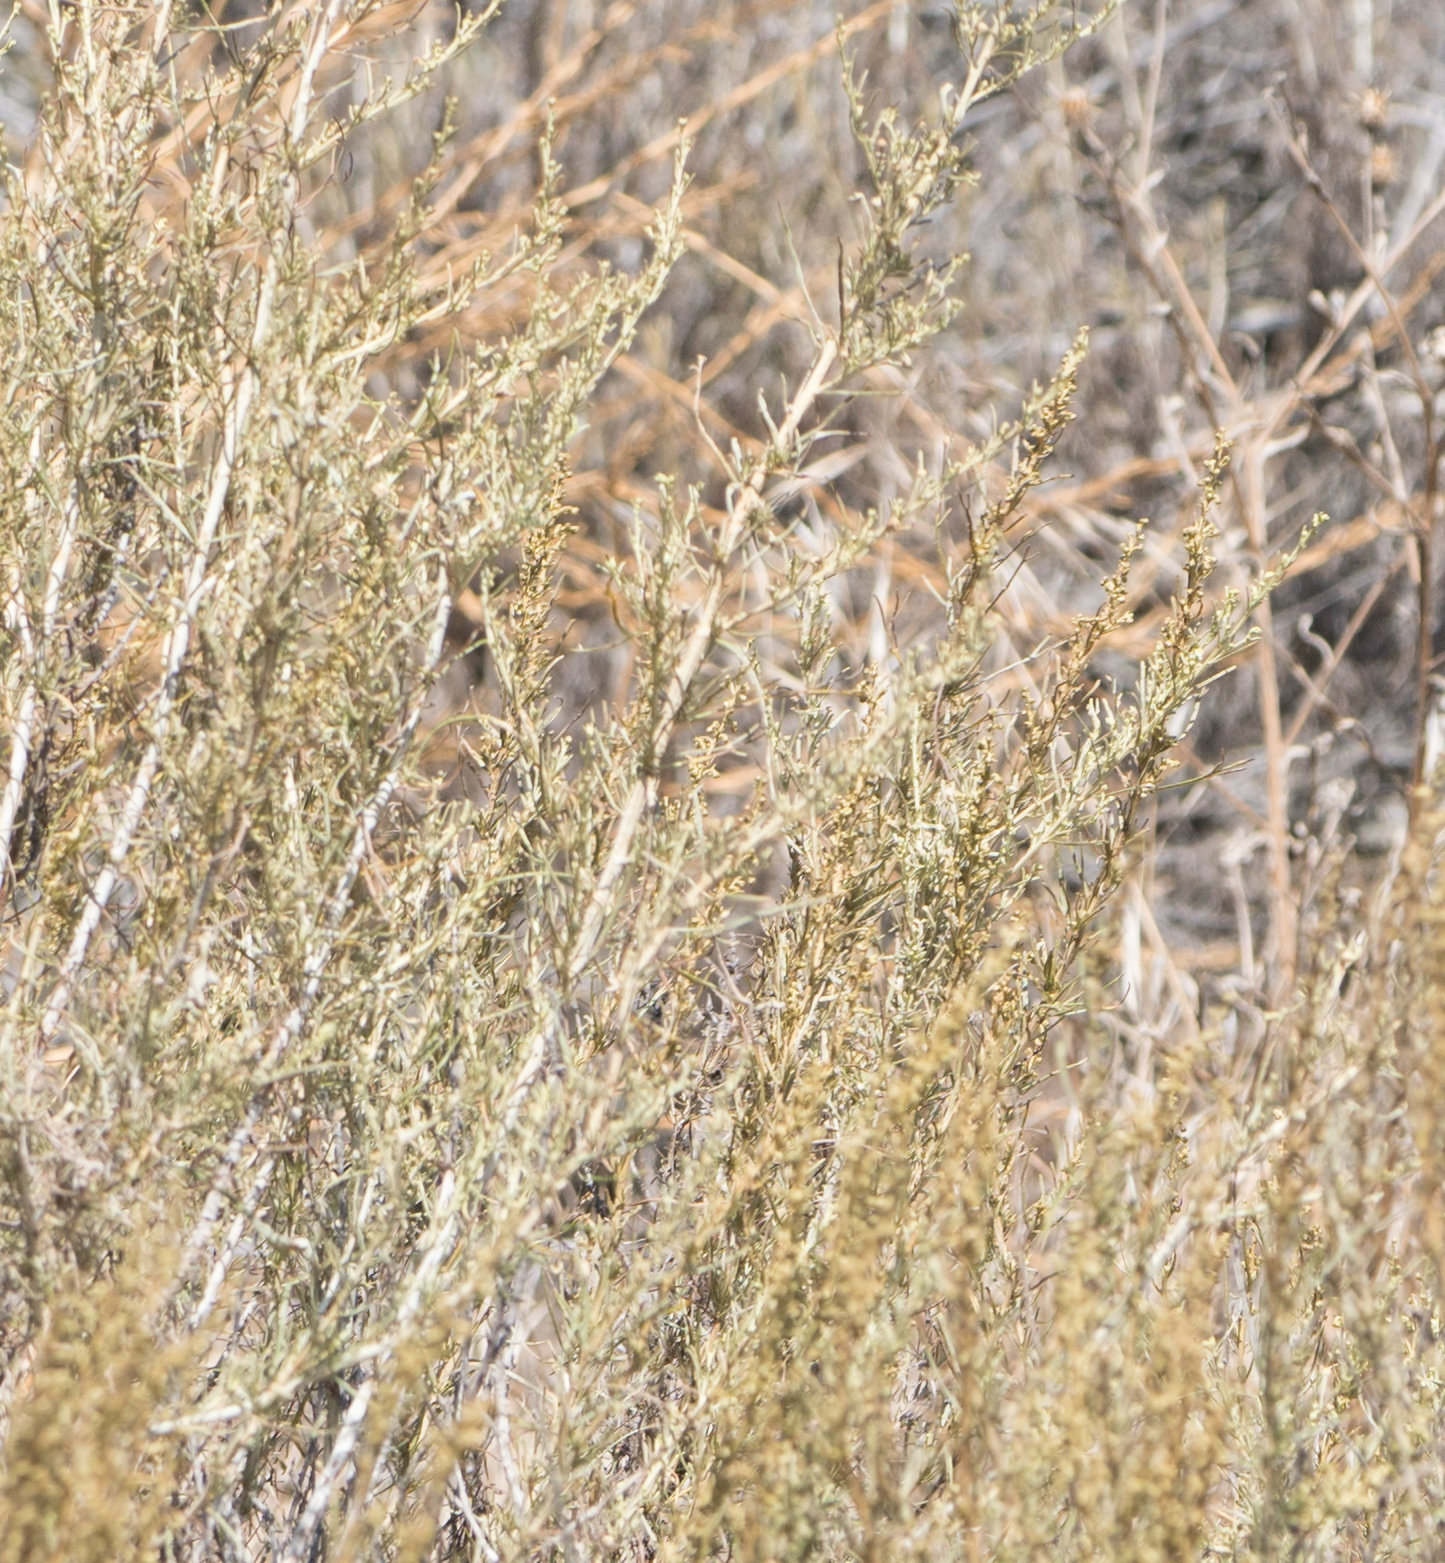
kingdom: Plantae
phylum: Tracheophyta
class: Magnoliopsida
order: Asterales
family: Asteraceae
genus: Artemisia
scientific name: Artemisia californica
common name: California sagebrush
